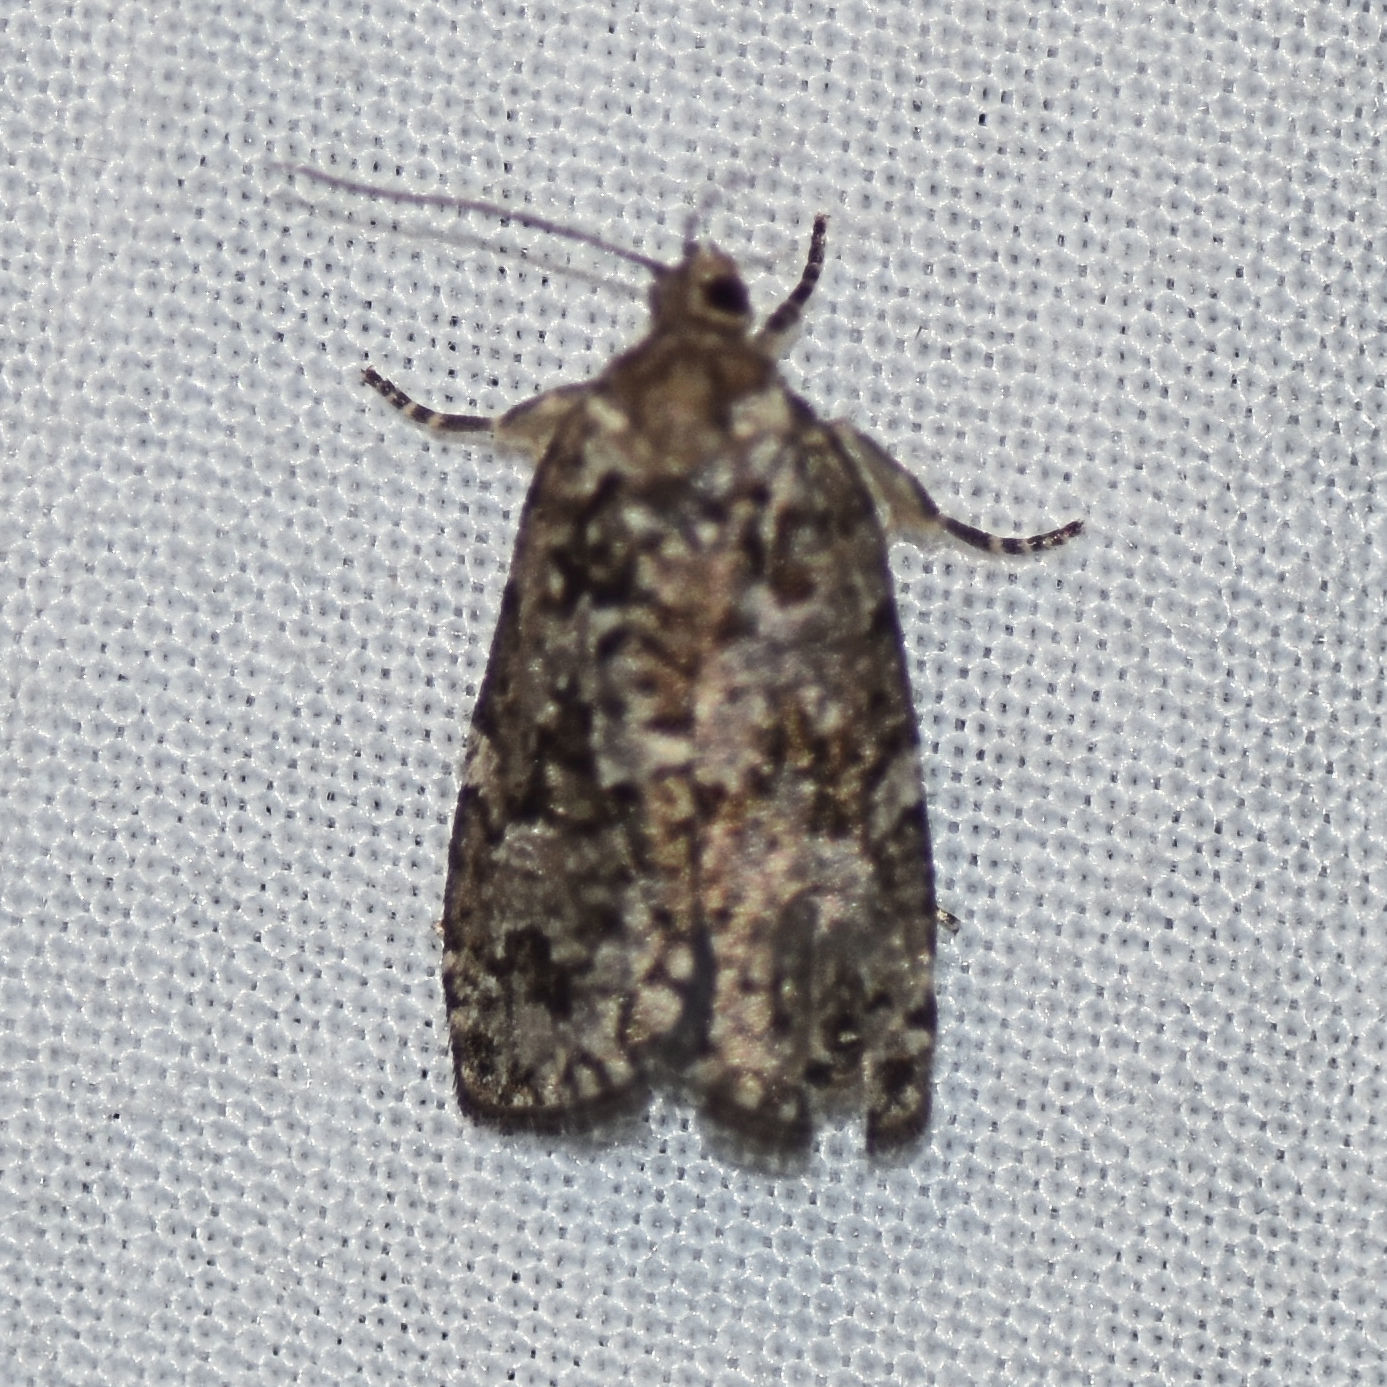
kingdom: Animalia
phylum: Arthropoda
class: Insecta
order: Lepidoptera
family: Tortricidae
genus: Choristoneura
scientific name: Choristoneura fumiferana
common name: Spruce budworm
